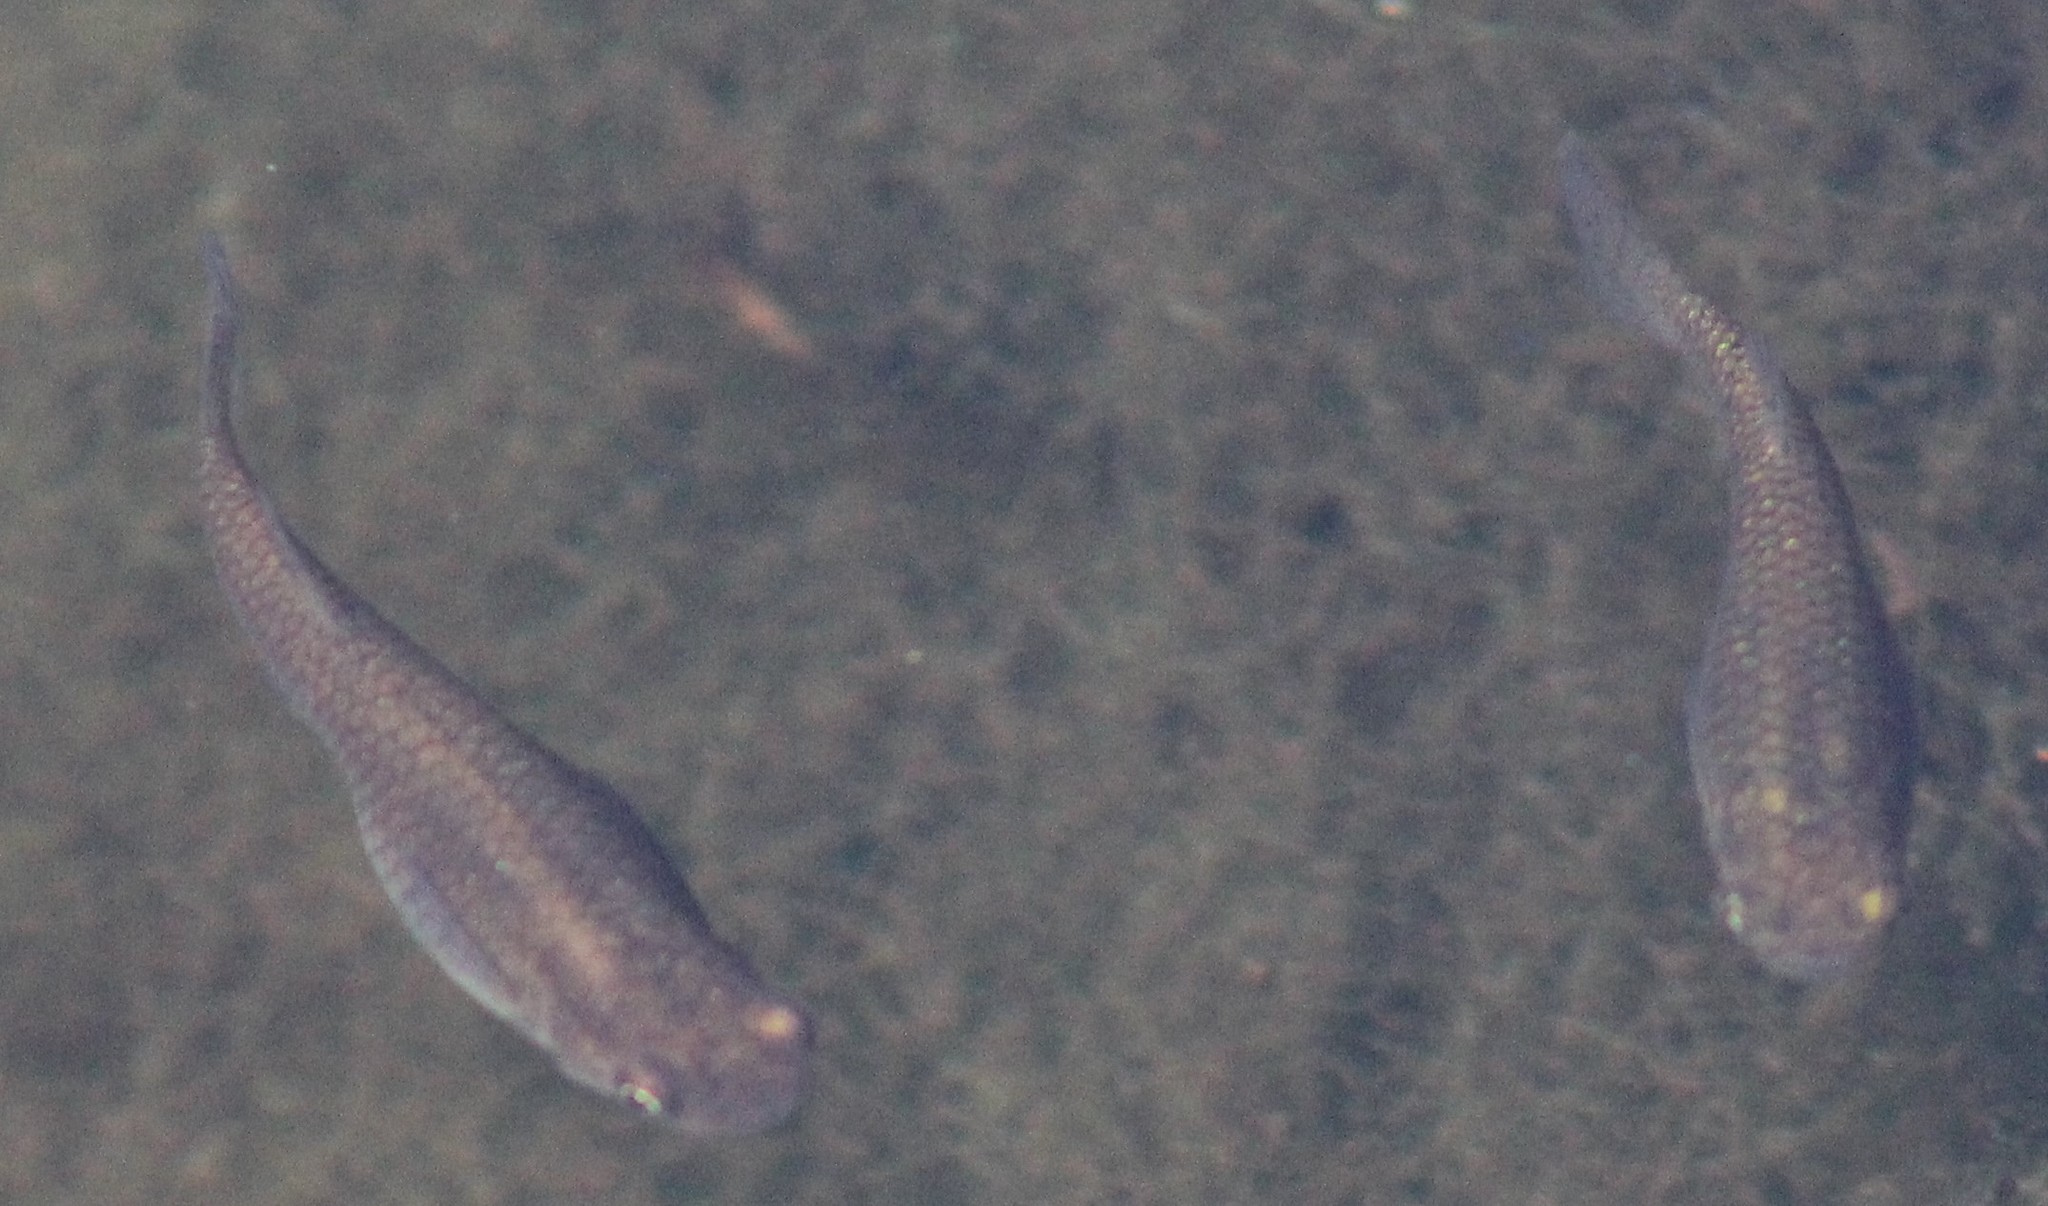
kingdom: Animalia
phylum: Chordata
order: Cyprinodontiformes
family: Poeciliidae
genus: Gambusia
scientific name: Gambusia affinis
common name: Mosquitofish
